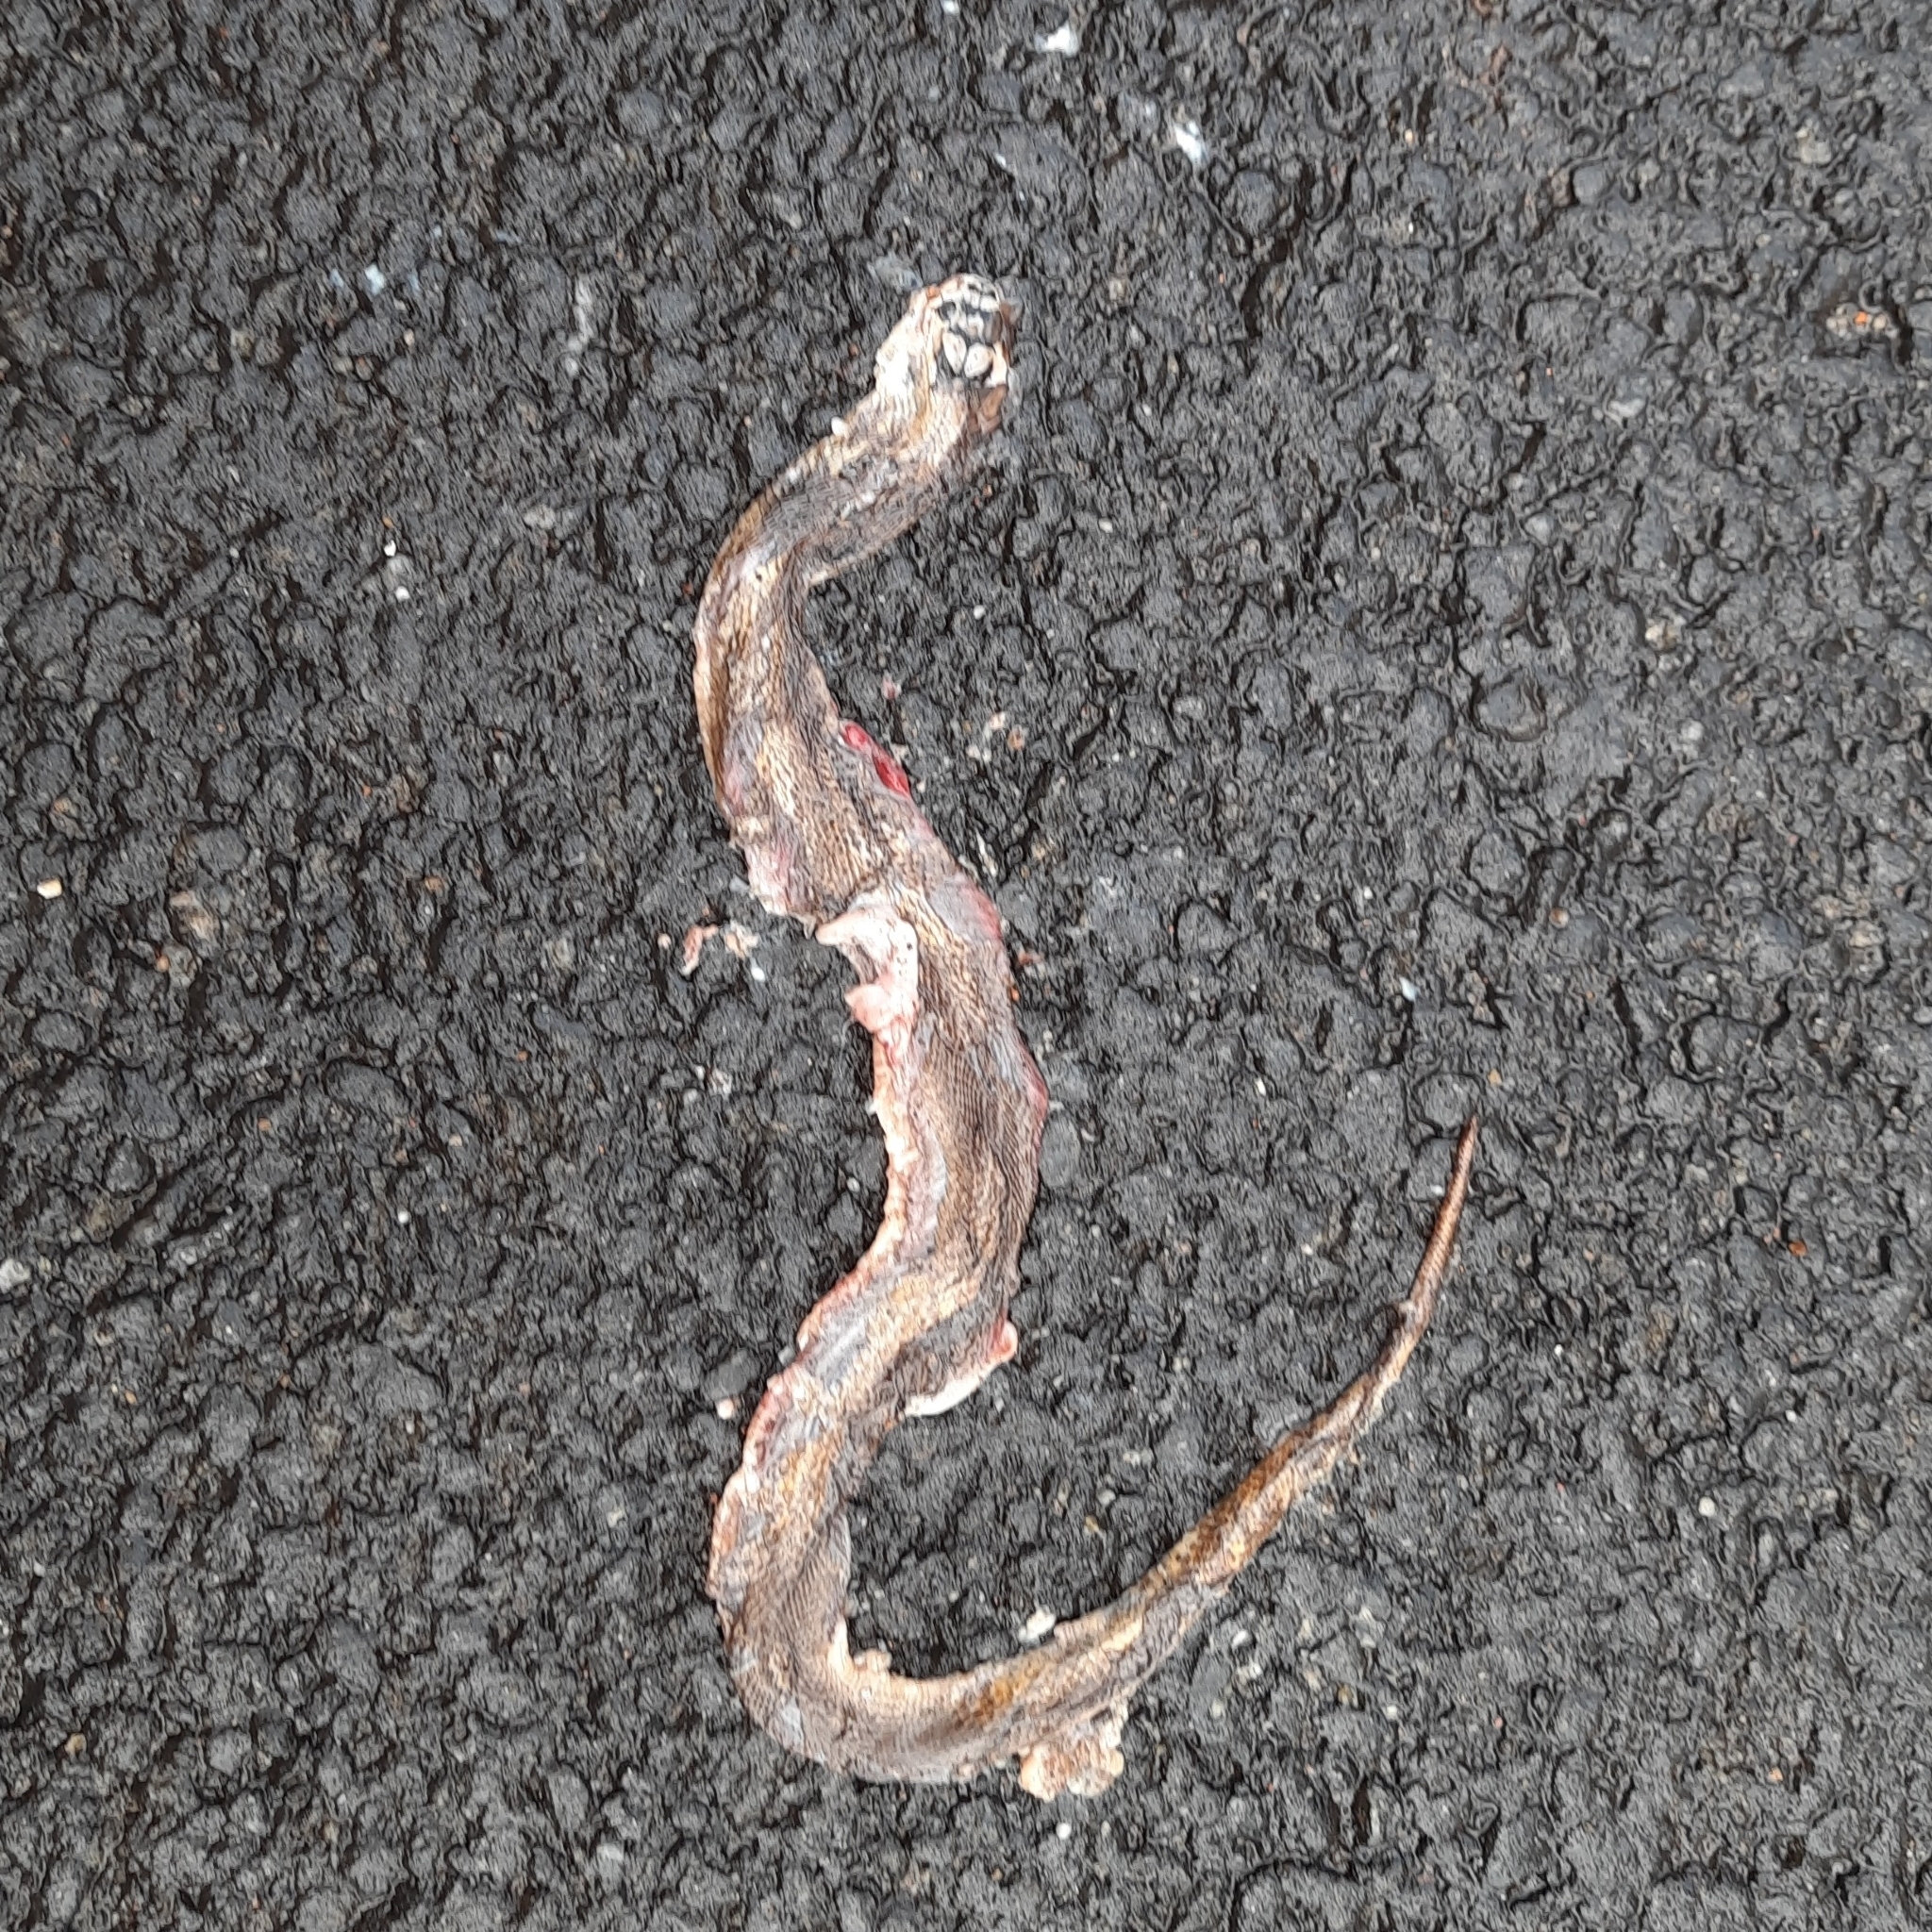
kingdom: Animalia
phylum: Chordata
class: Squamata
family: Elapidae
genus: Naja
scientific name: Naja naja
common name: Indian cobra
